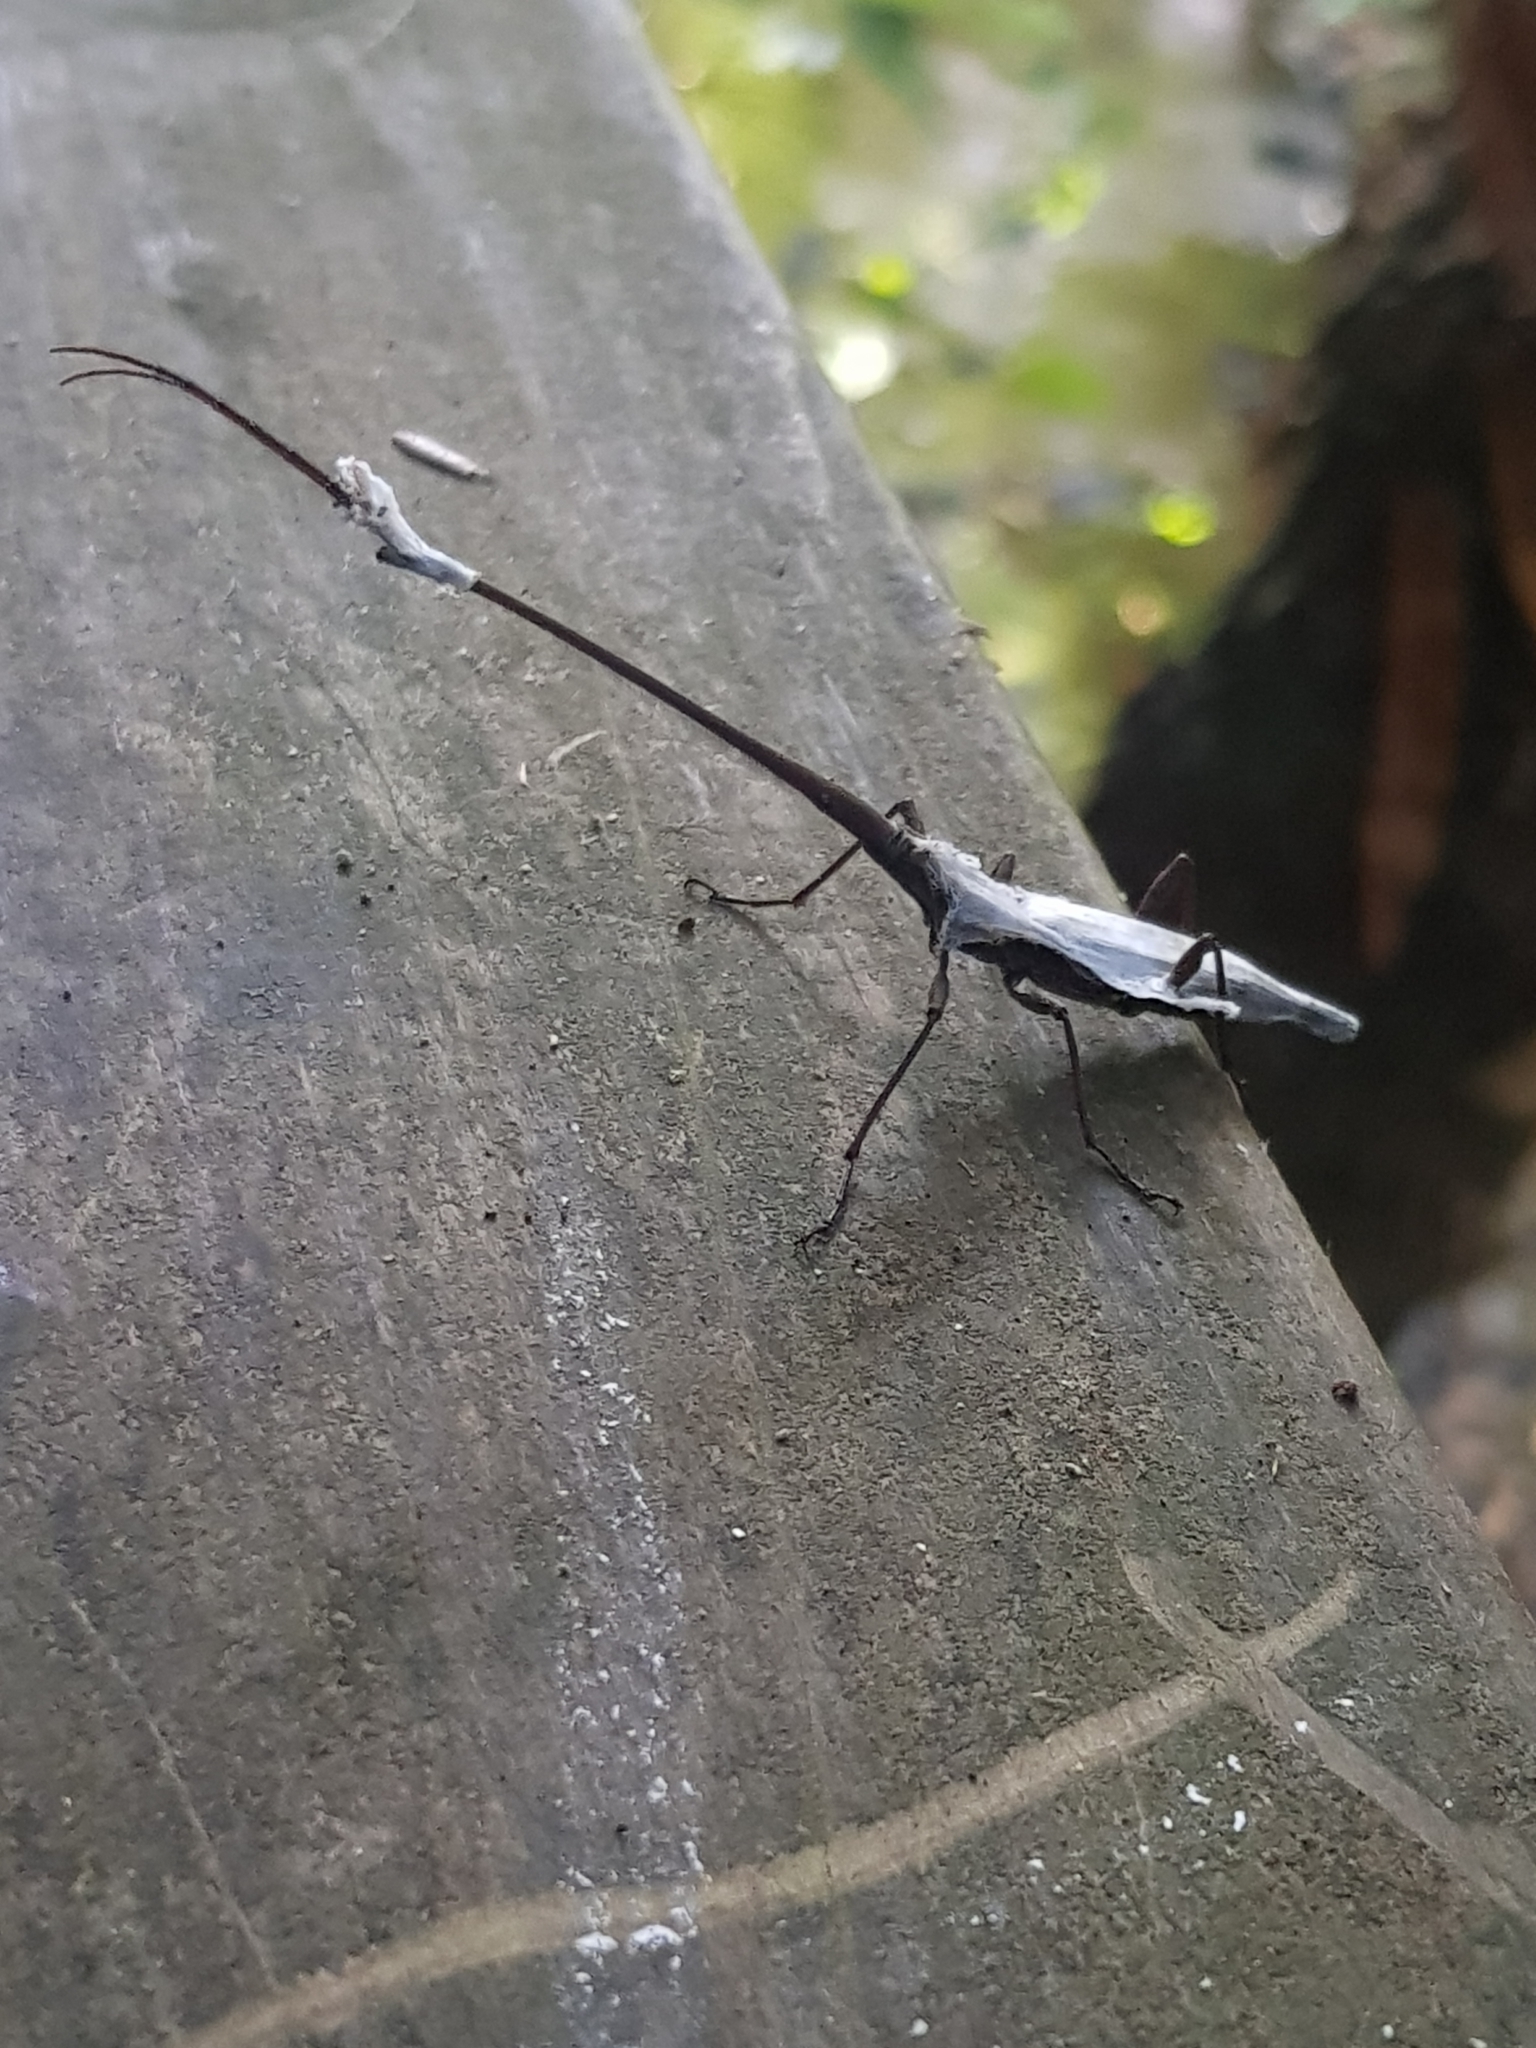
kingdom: Animalia
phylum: Arthropoda
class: Insecta
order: Coleoptera
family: Brentidae
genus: Lasiorhynchus
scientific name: Lasiorhynchus barbicornis
